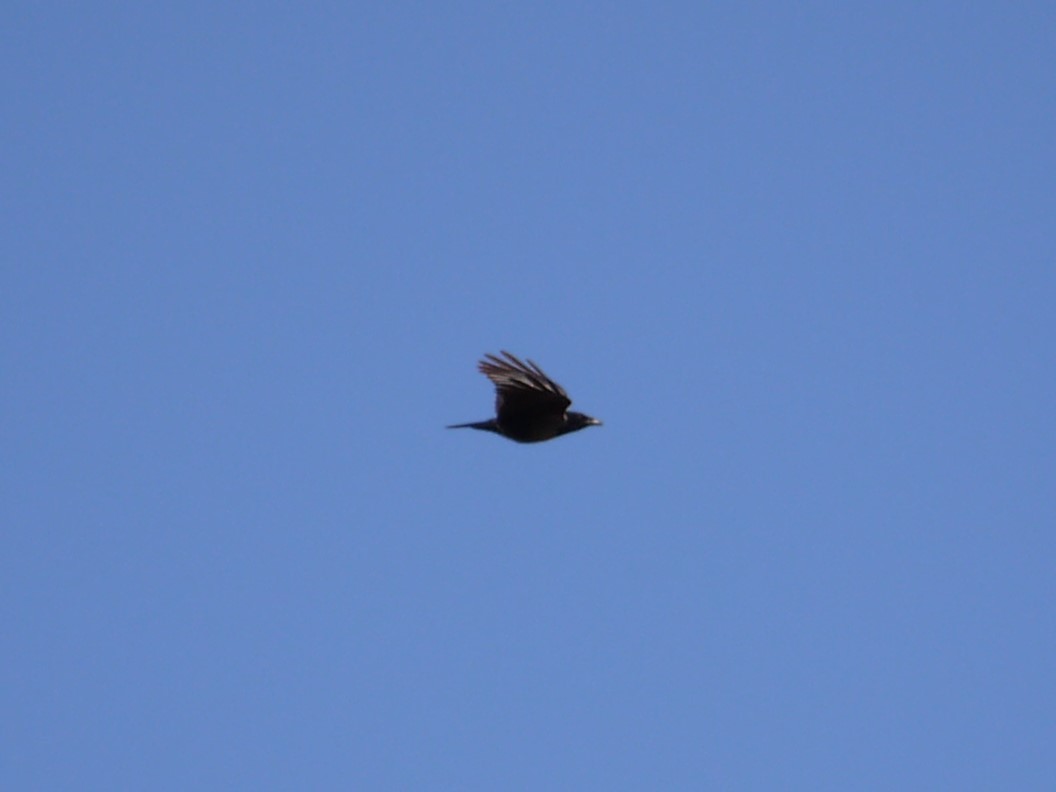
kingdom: Animalia
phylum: Chordata
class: Aves
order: Passeriformes
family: Corvidae
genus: Corvus
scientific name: Corvus
